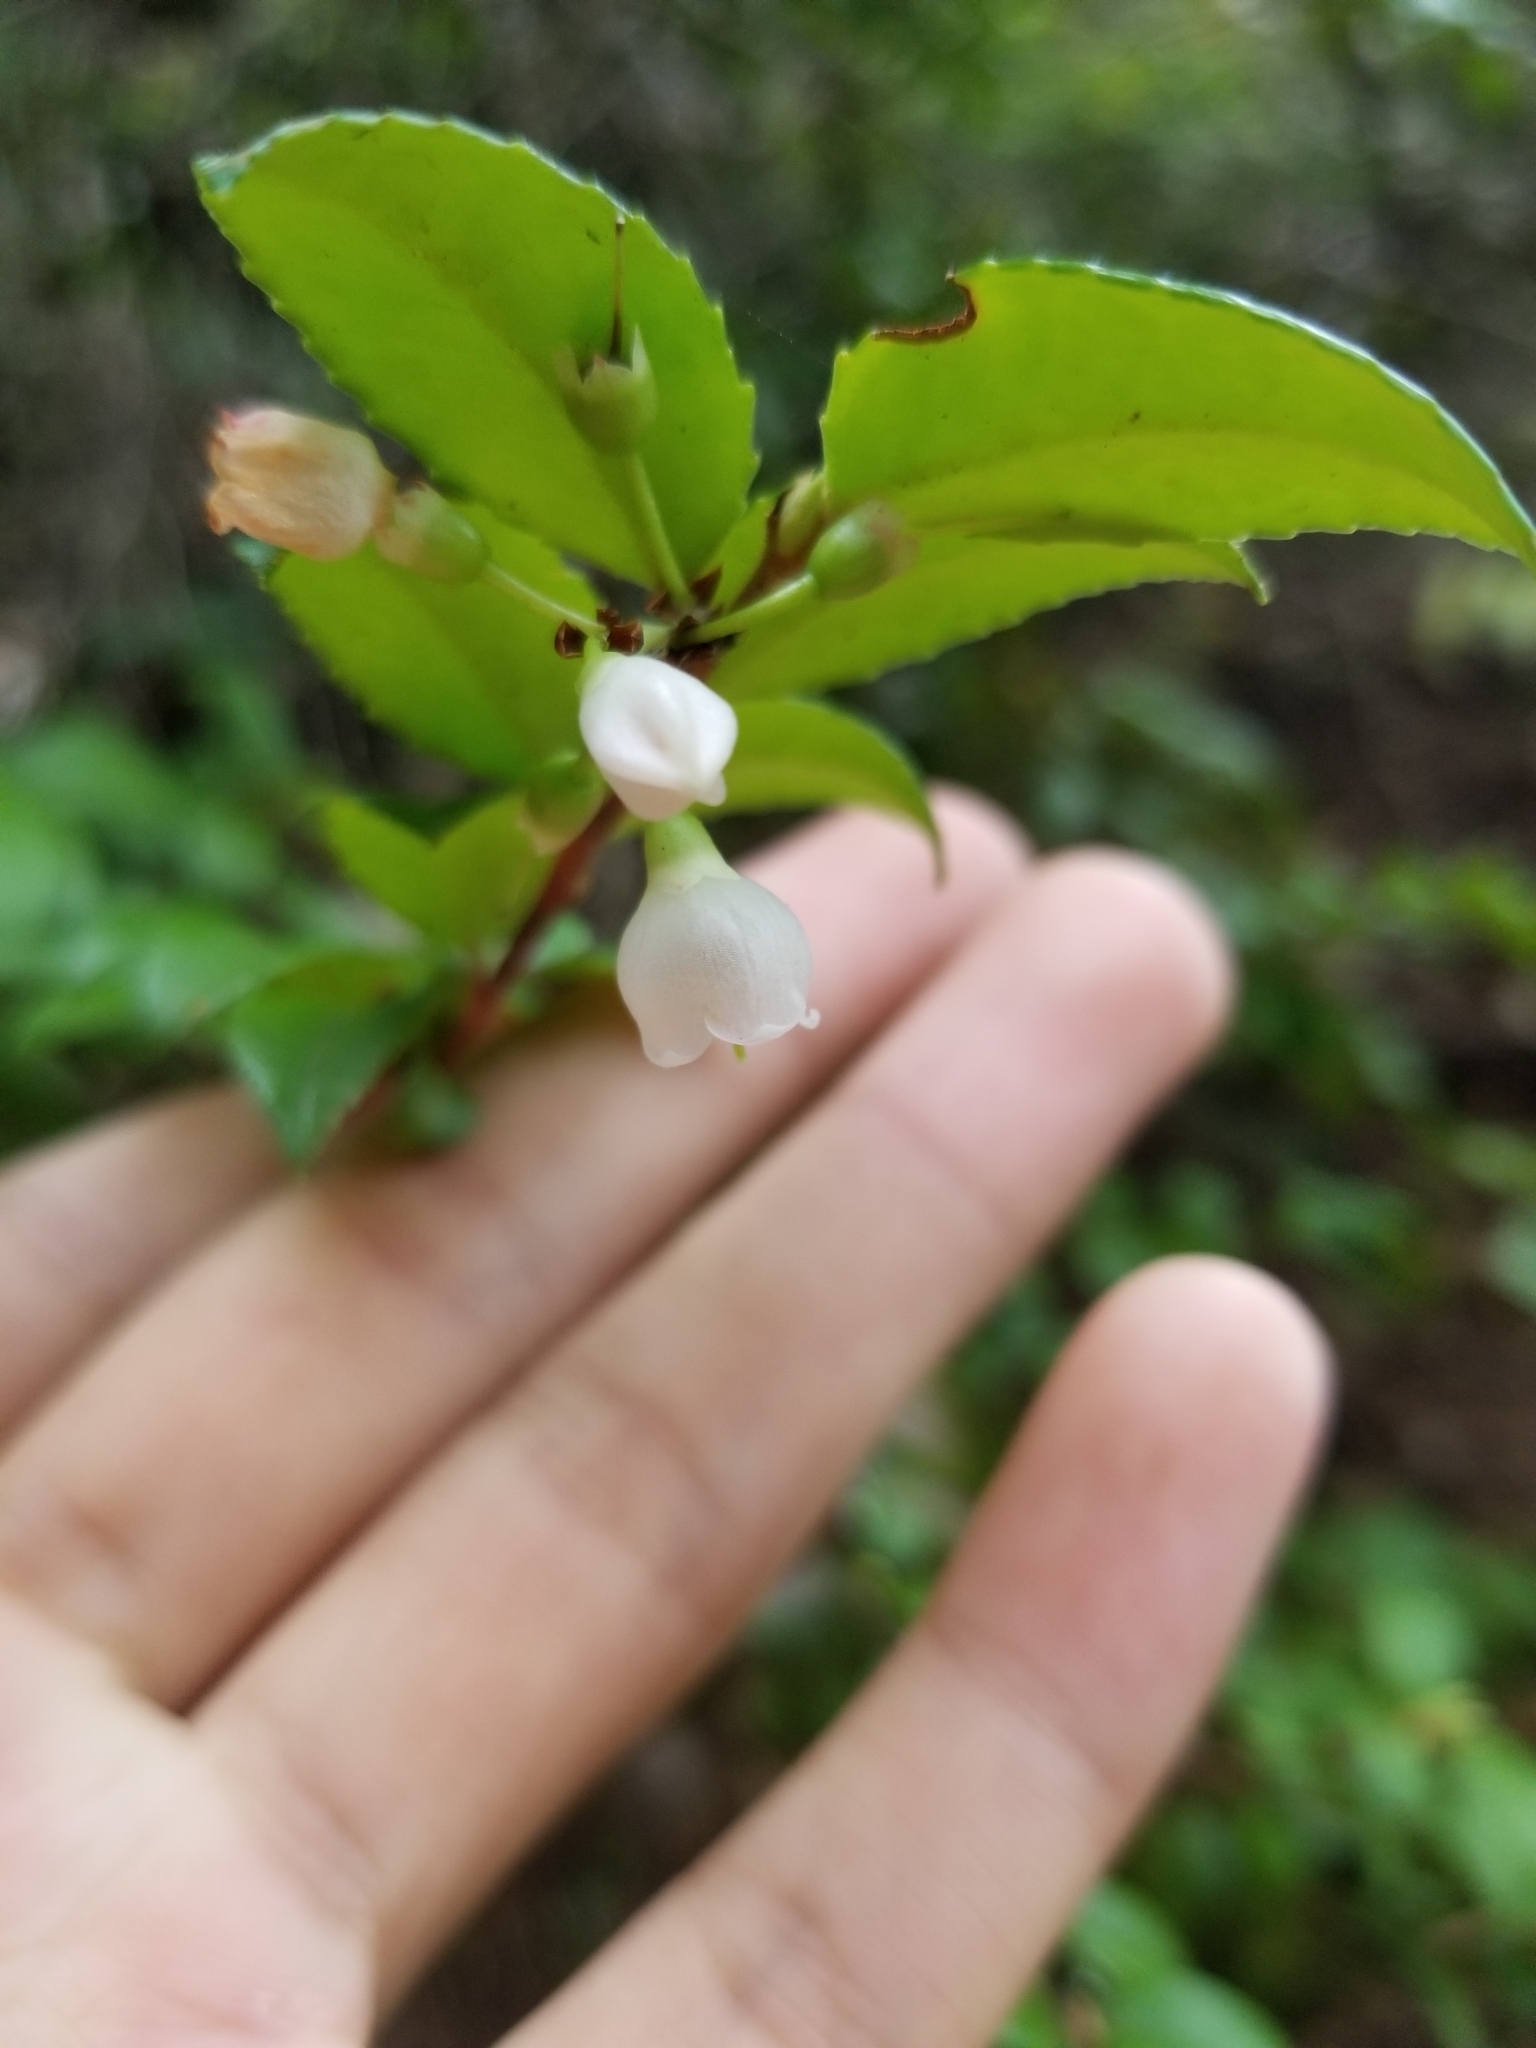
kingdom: Plantae
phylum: Tracheophyta
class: Magnoliopsida
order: Ericales
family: Ericaceae
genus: Vaccinium
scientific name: Vaccinium ovatum
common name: California-huckleberry
